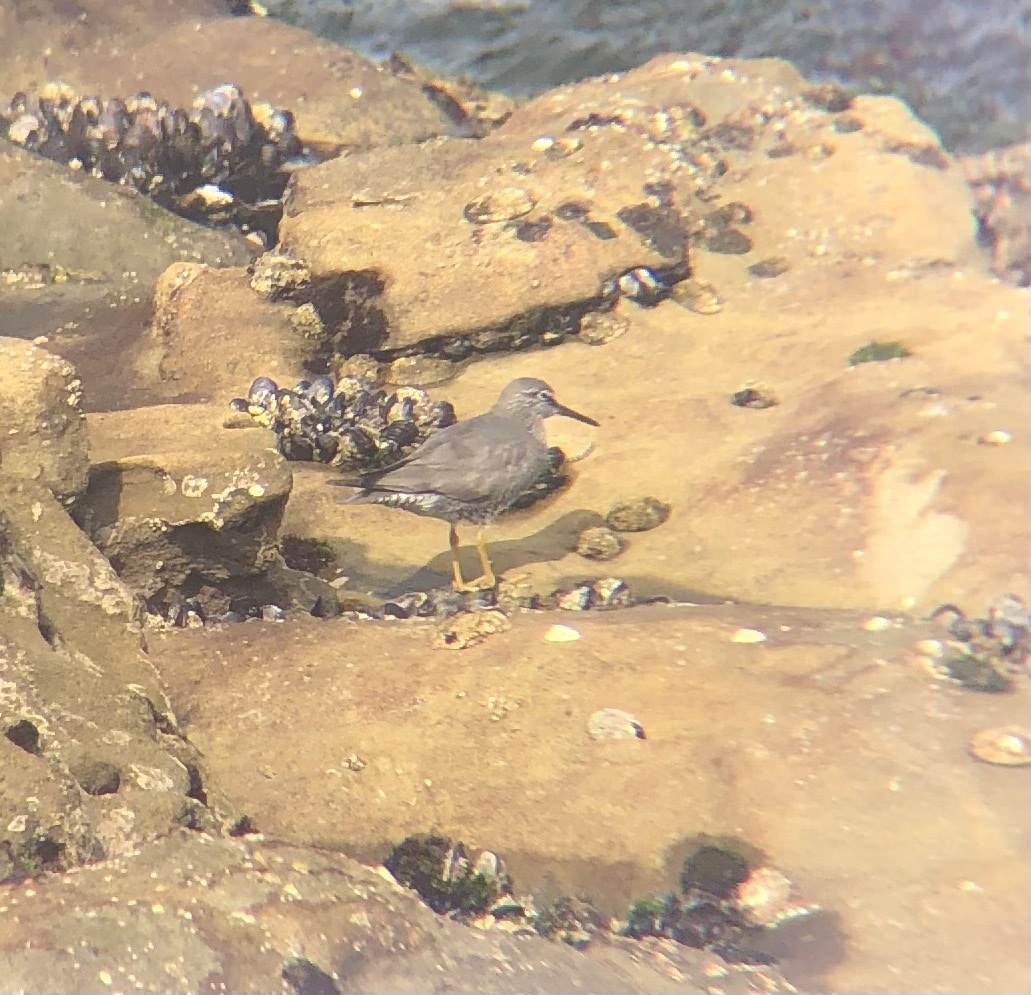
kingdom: Animalia
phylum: Chordata
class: Aves
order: Charadriiformes
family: Scolopacidae
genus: Tringa
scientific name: Tringa incana
